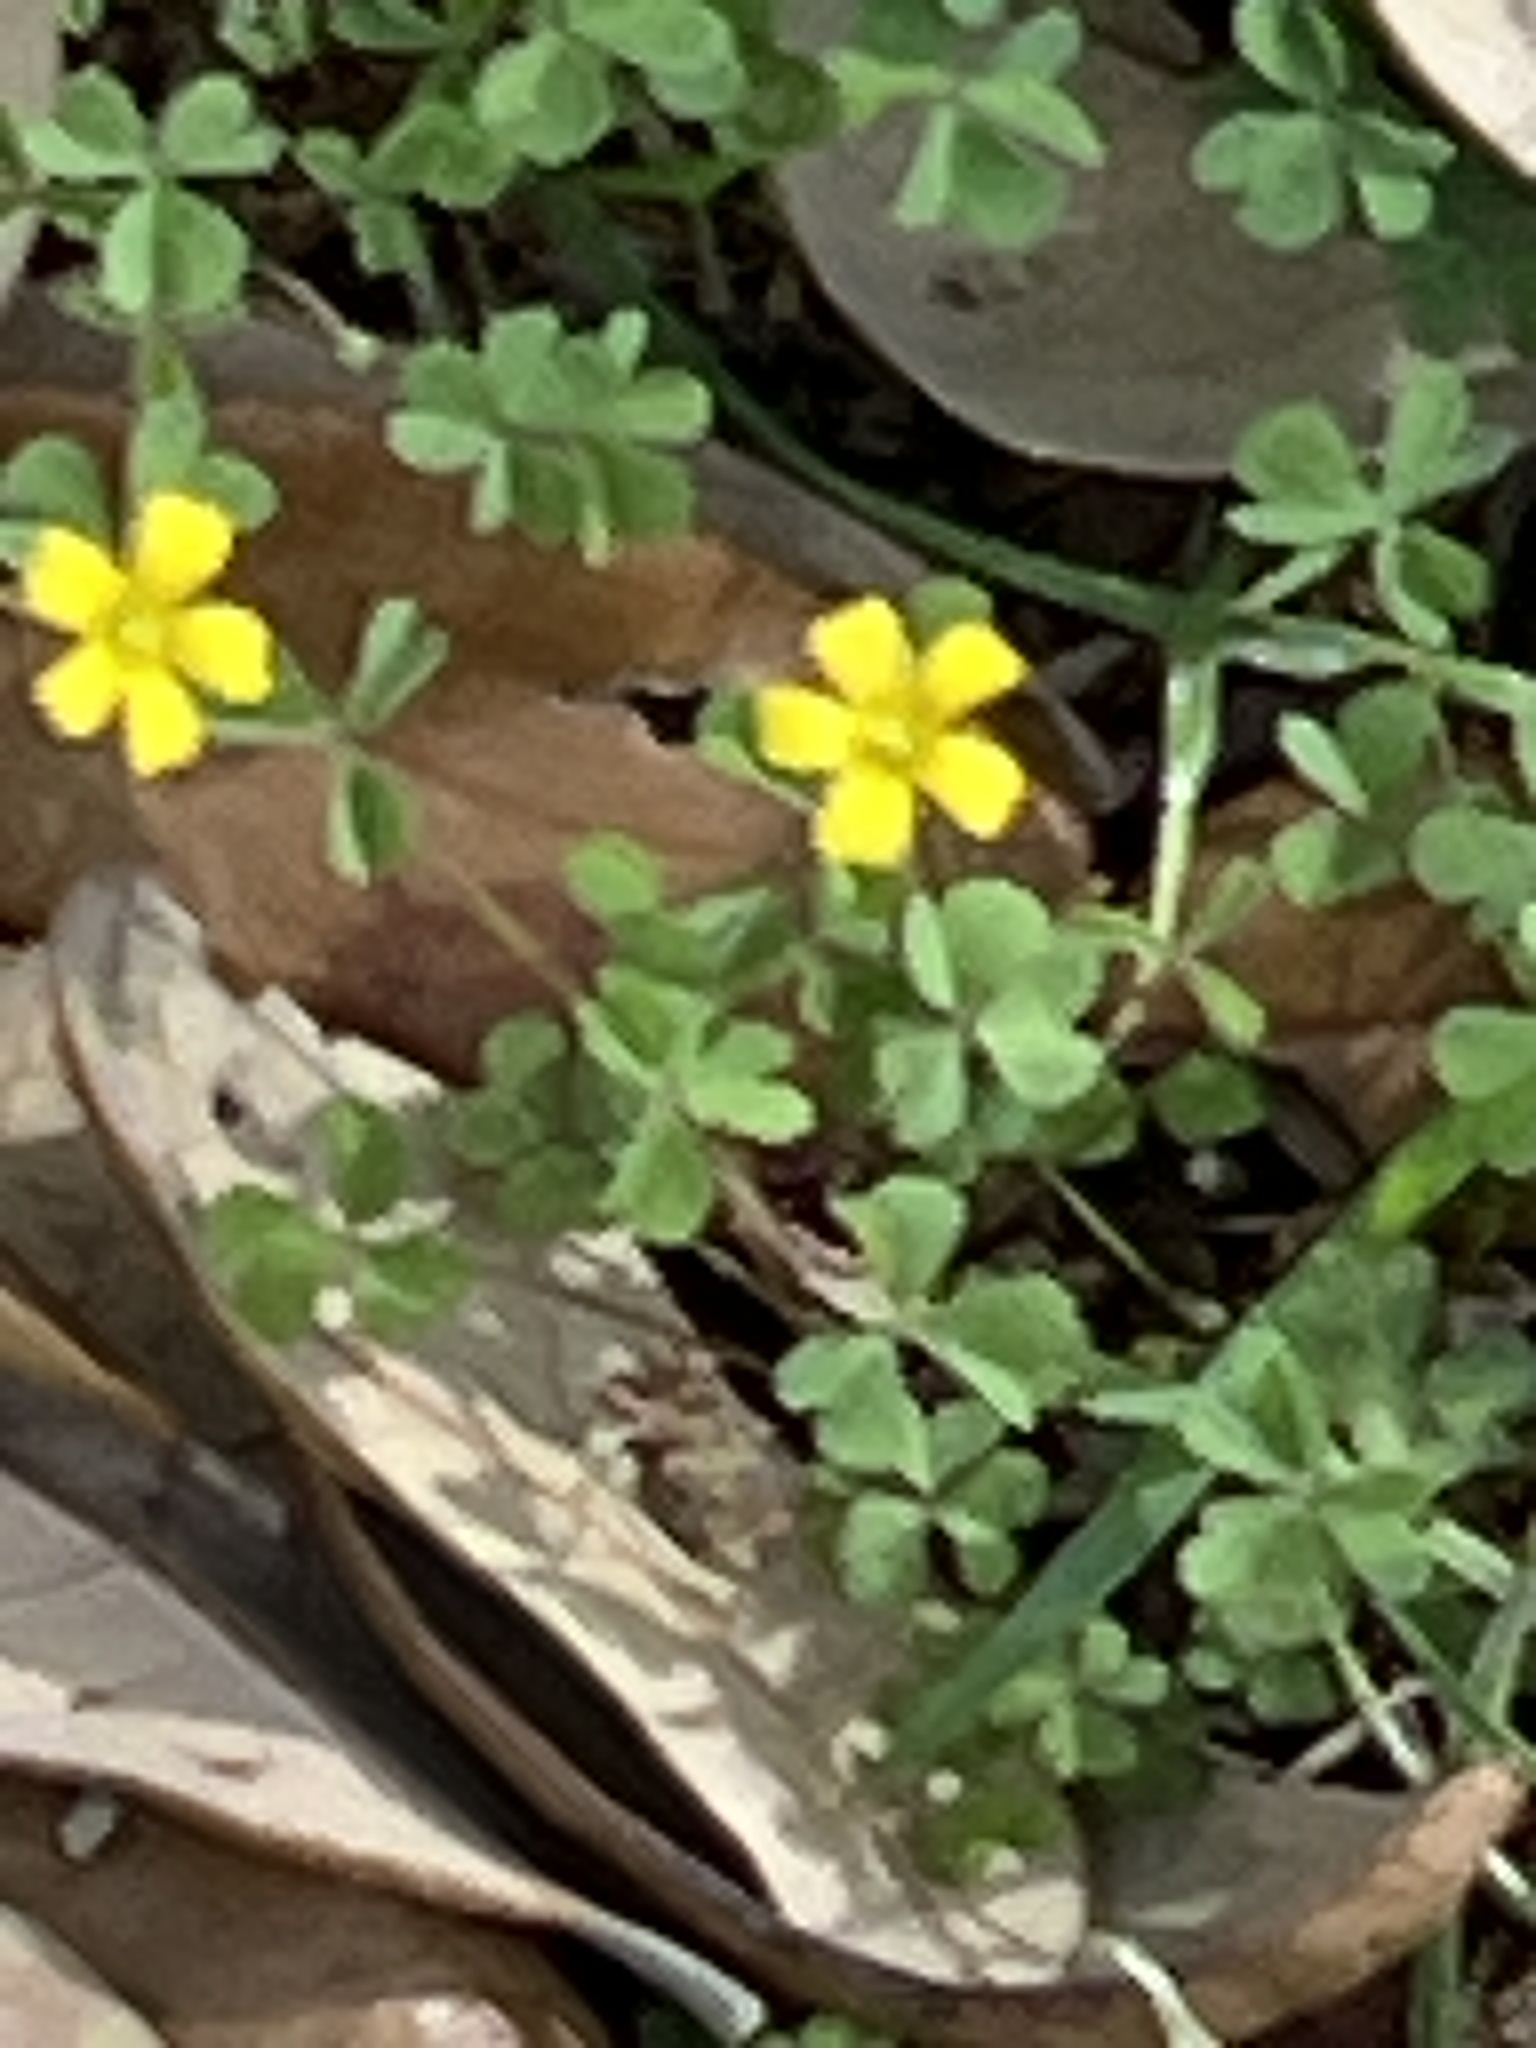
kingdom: Plantae
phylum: Tracheophyta
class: Magnoliopsida
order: Oxalidales
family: Oxalidaceae
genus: Oxalis
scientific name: Oxalis dillenii
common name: Sussex yellow-sorrel
